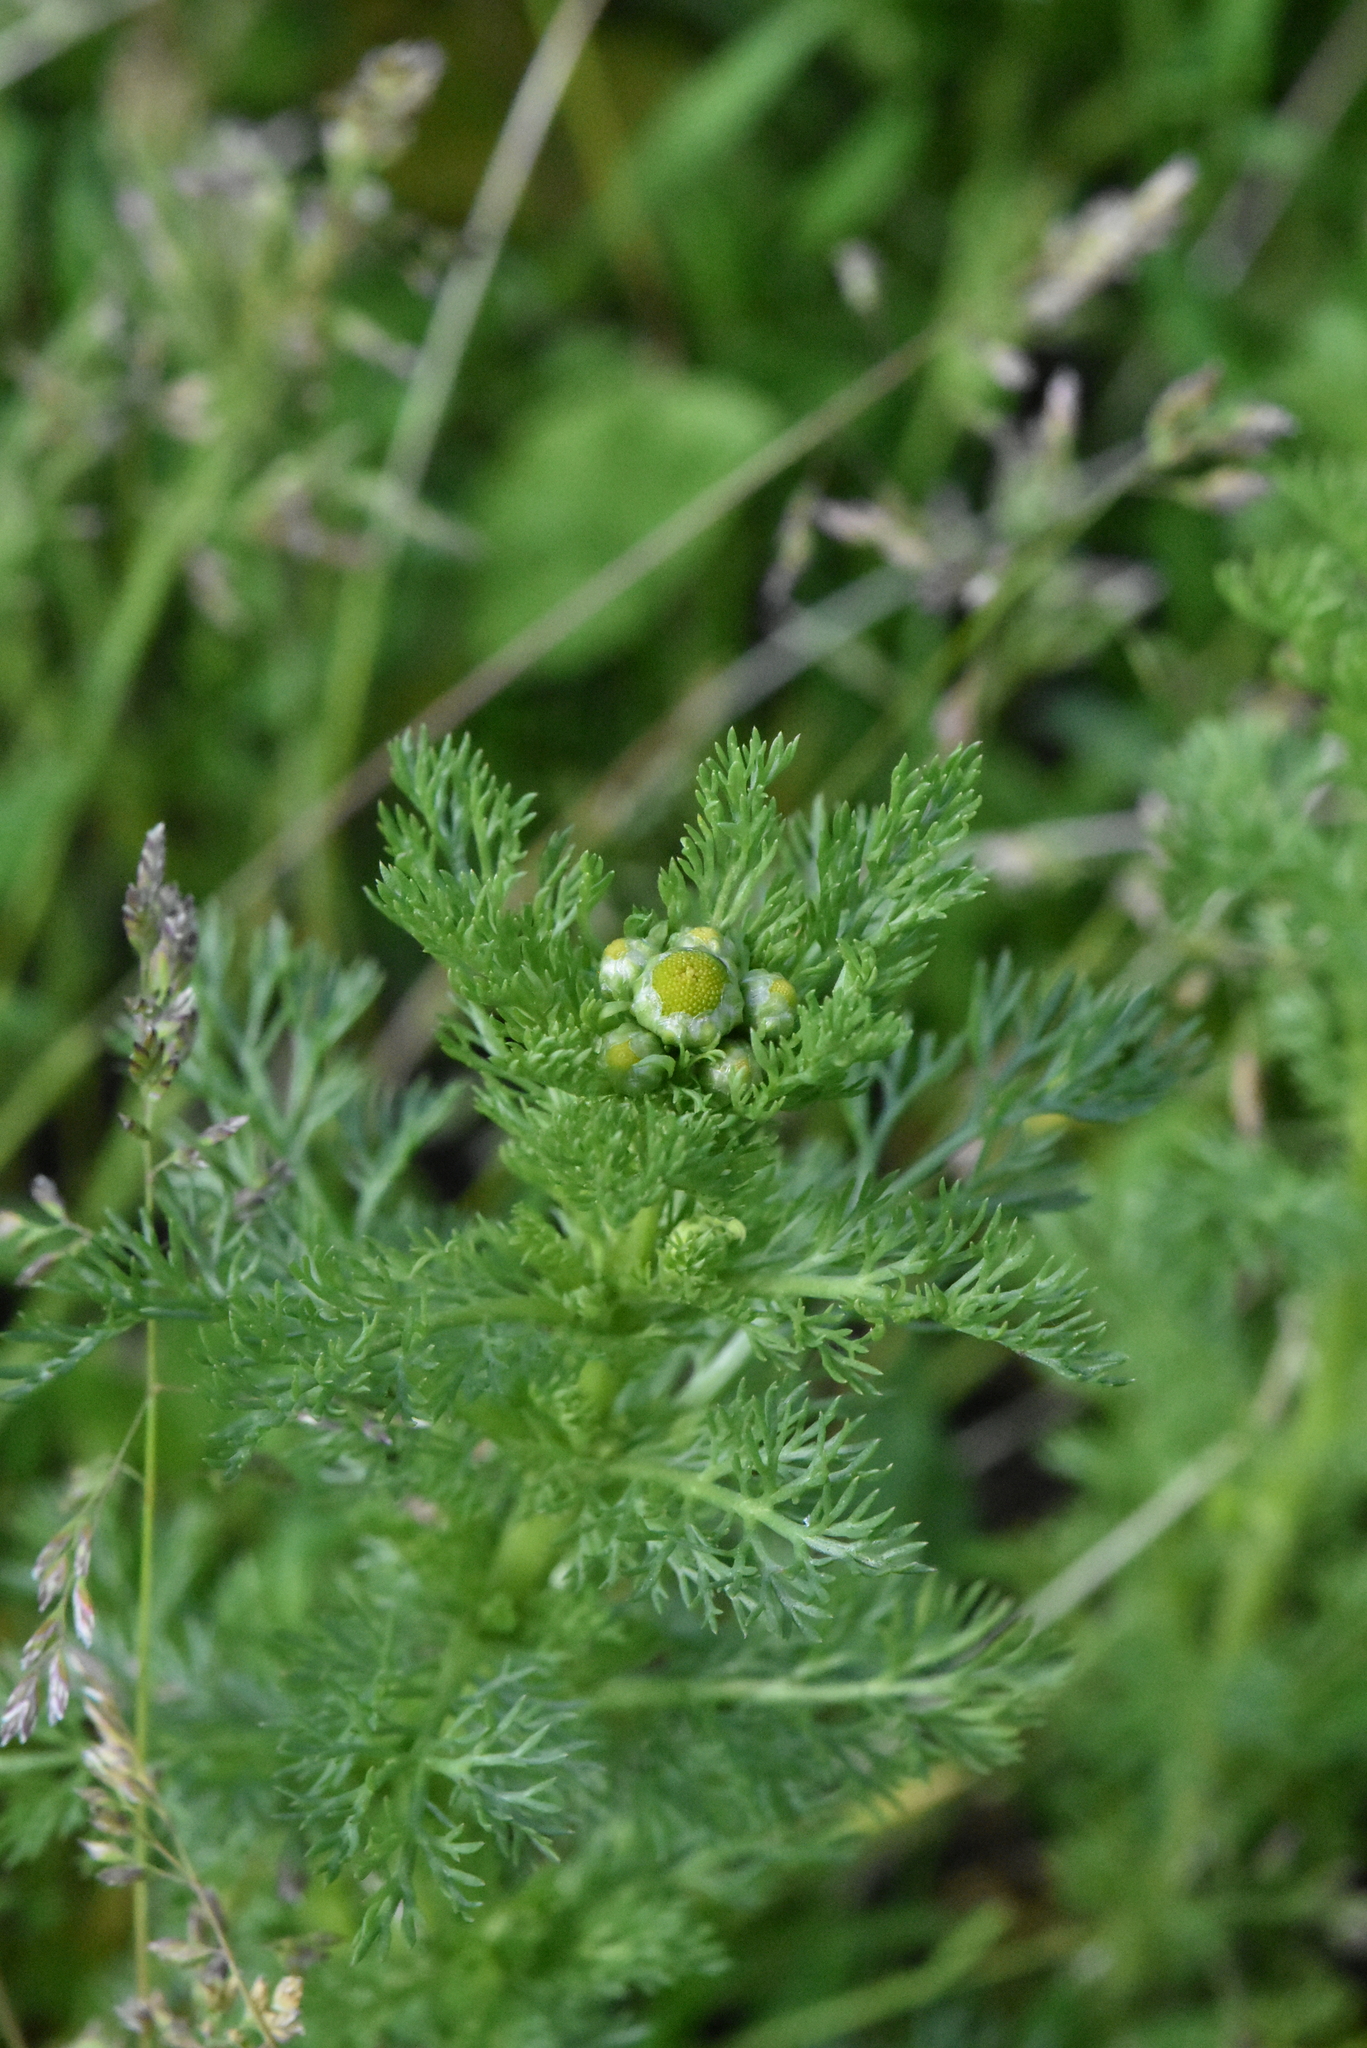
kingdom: Plantae
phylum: Tracheophyta
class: Magnoliopsida
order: Asterales
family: Asteraceae
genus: Matricaria
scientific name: Matricaria discoidea
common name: Disc mayweed
